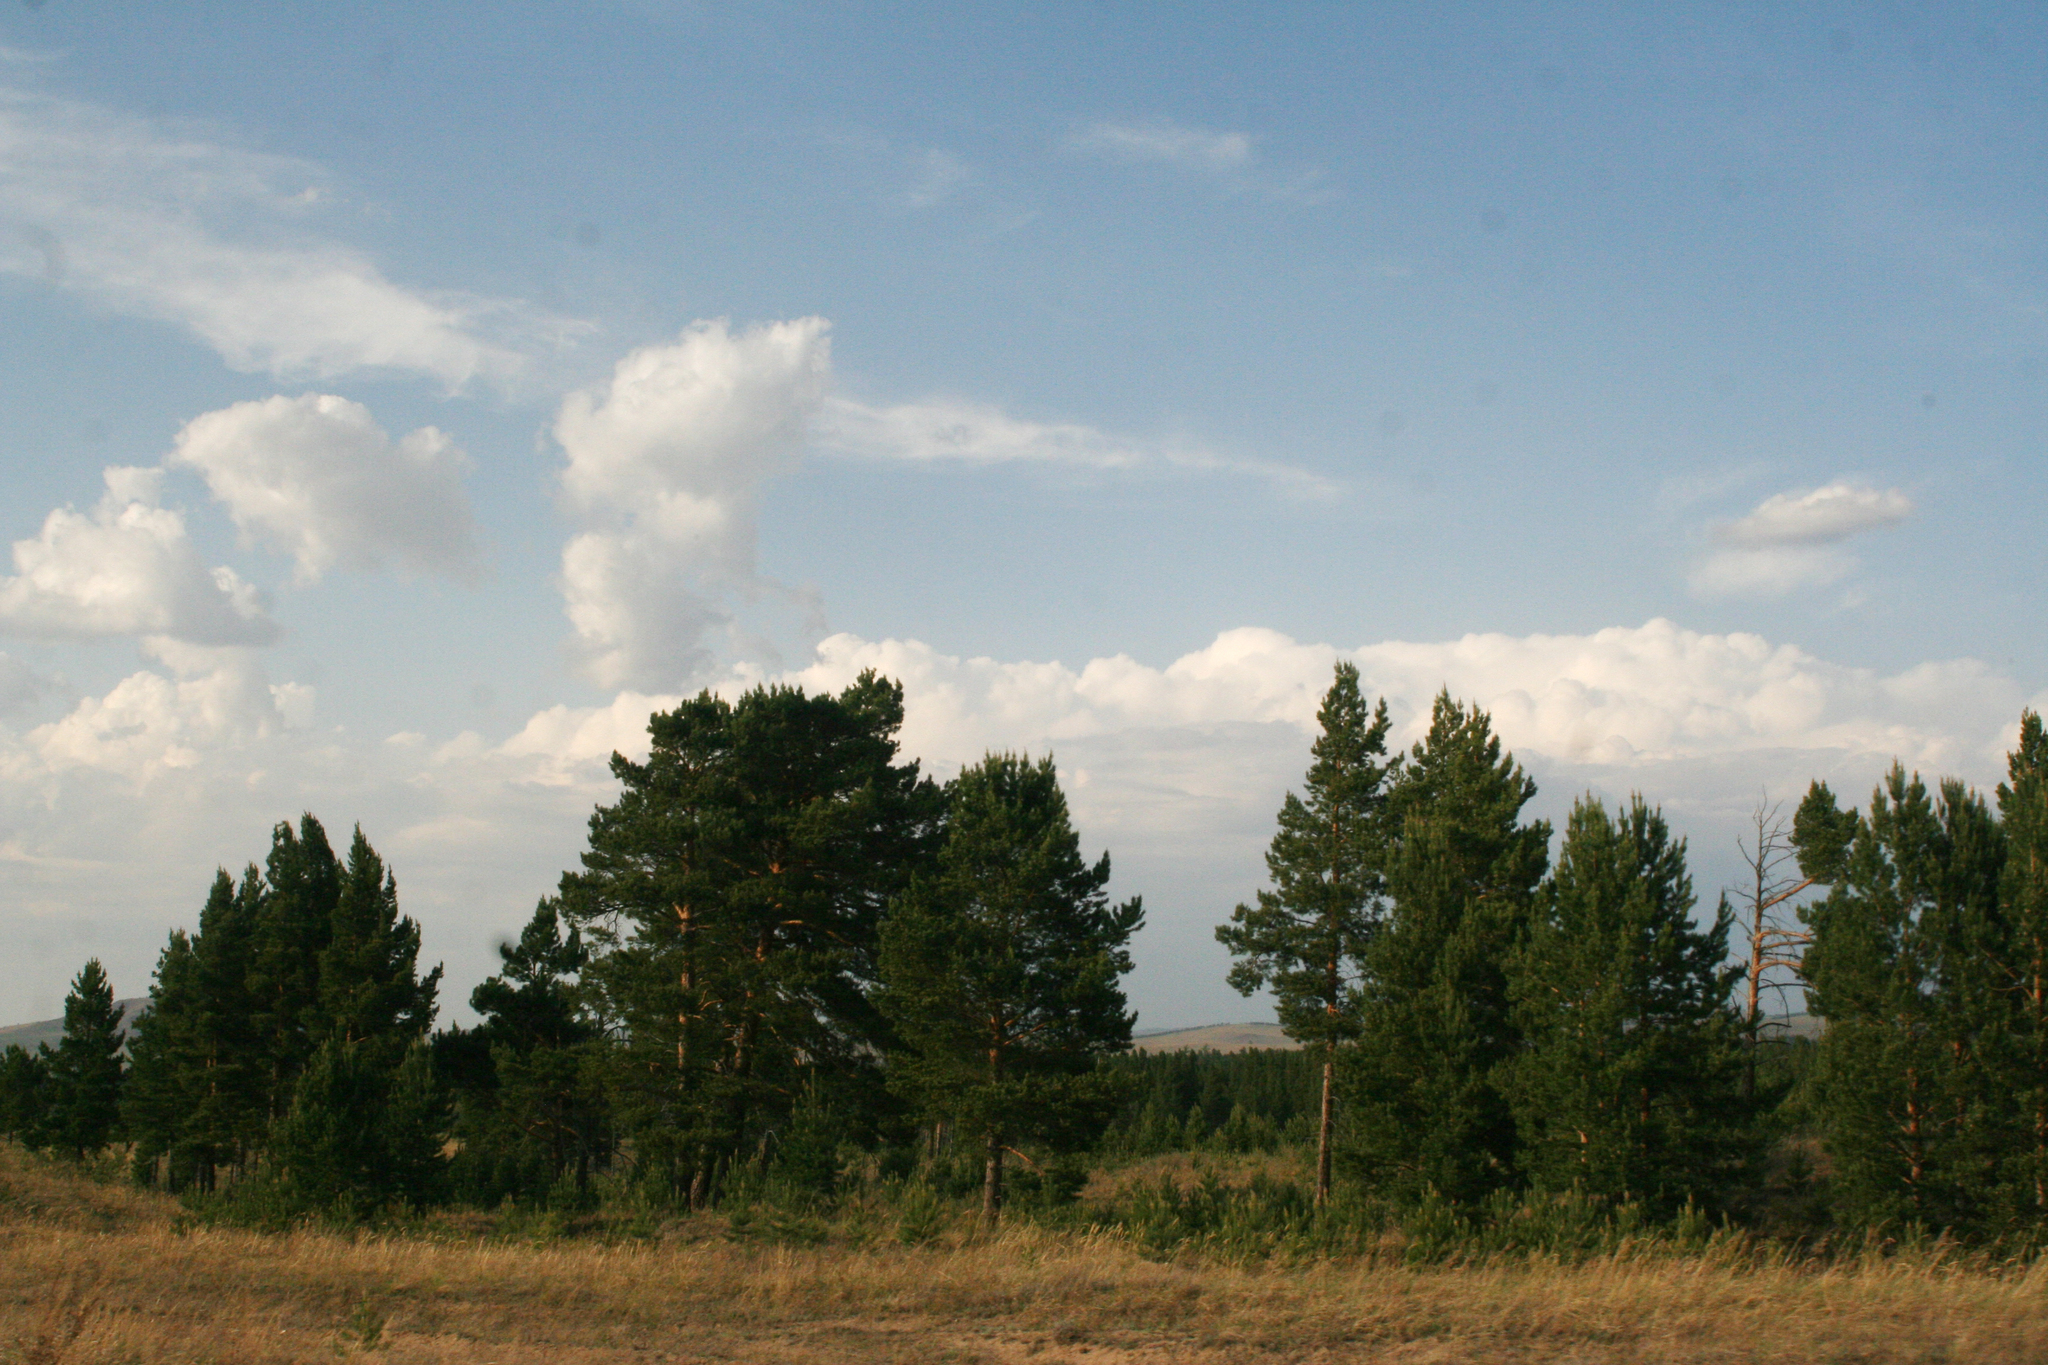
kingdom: Plantae
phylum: Tracheophyta
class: Pinopsida
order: Pinales
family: Pinaceae
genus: Pinus
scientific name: Pinus sylvestris
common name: Scots pine
